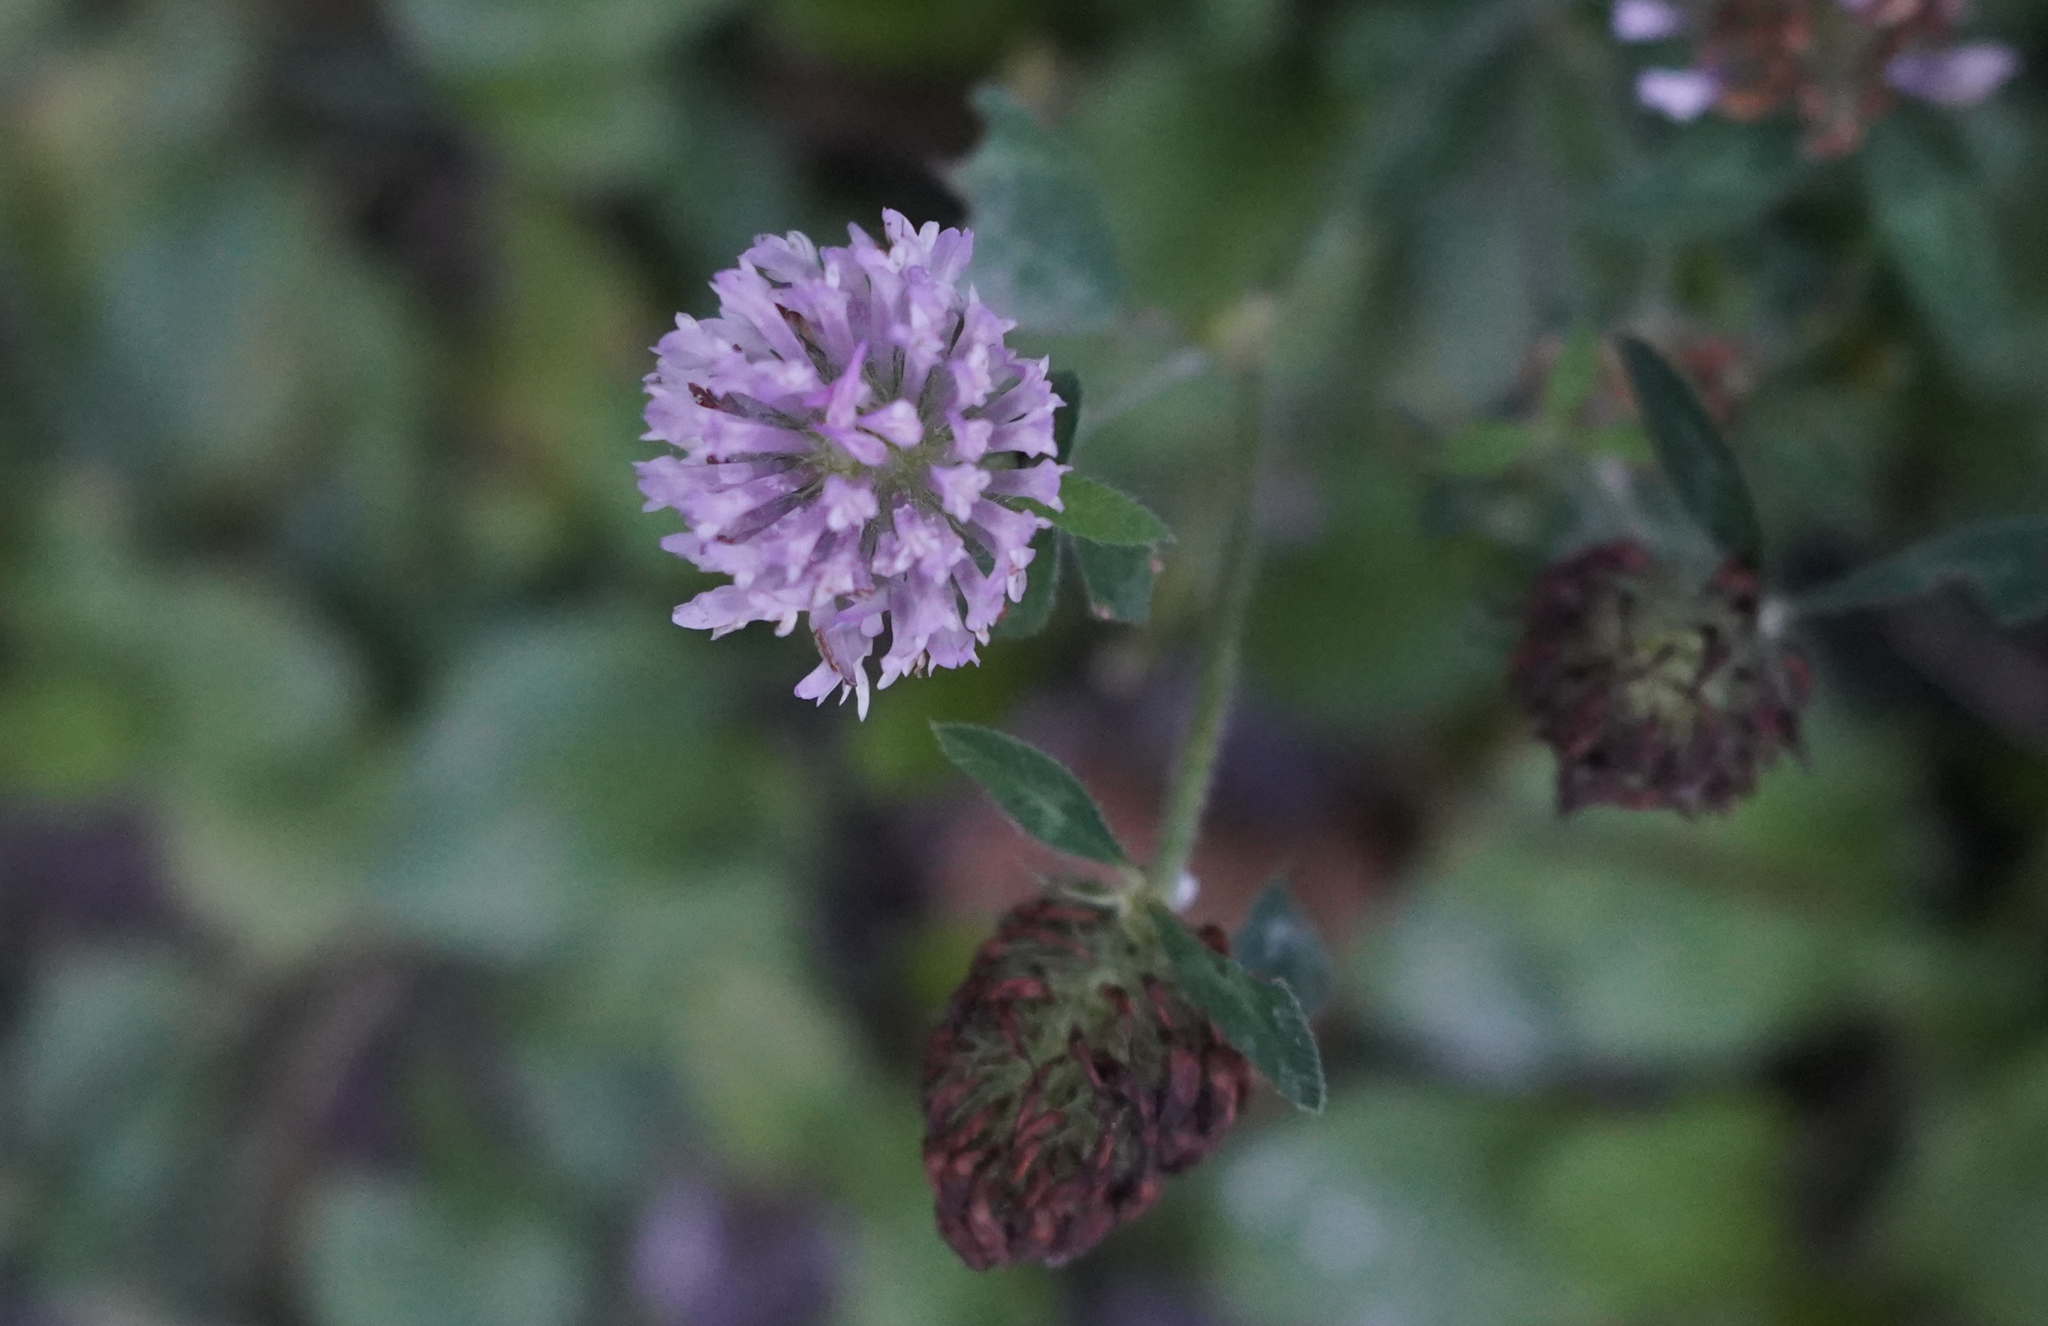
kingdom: Plantae
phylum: Tracheophyta
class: Magnoliopsida
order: Fabales
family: Fabaceae
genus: Trifolium
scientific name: Trifolium pratense
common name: Red clover
